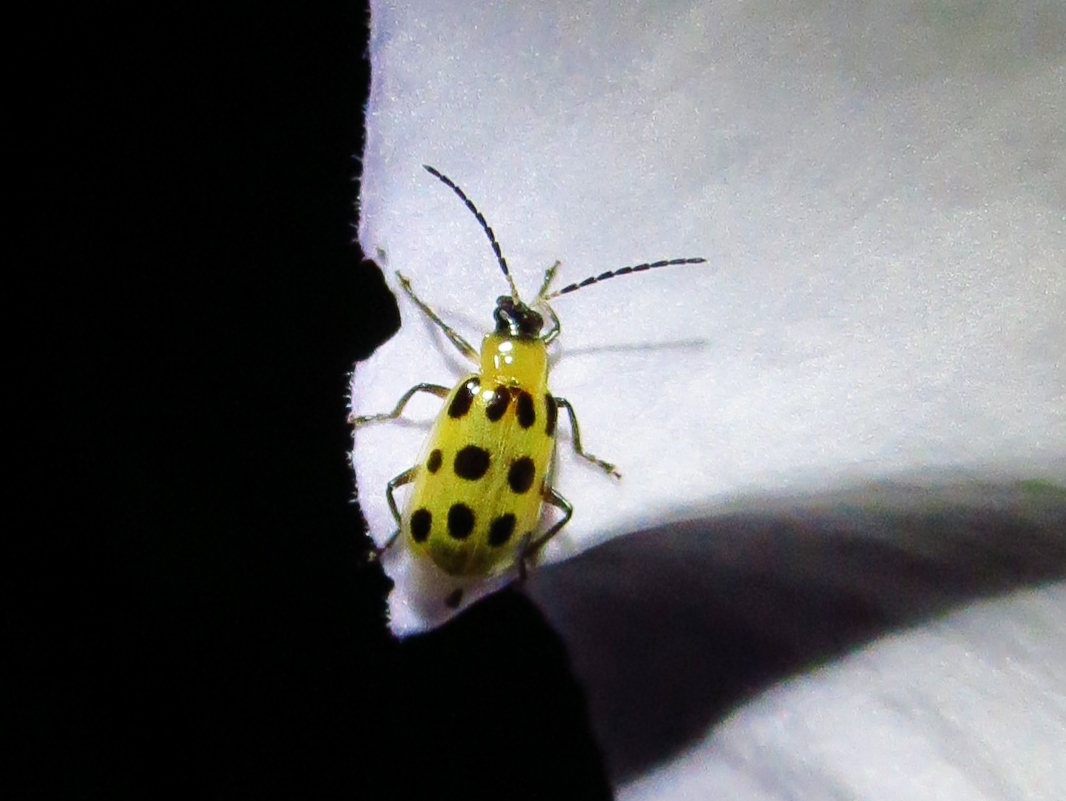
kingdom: Animalia
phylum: Arthropoda
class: Insecta
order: Coleoptera
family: Chrysomelidae
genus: Diabrotica
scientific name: Diabrotica undecimpunctata
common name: Spotted cucumber beetle
